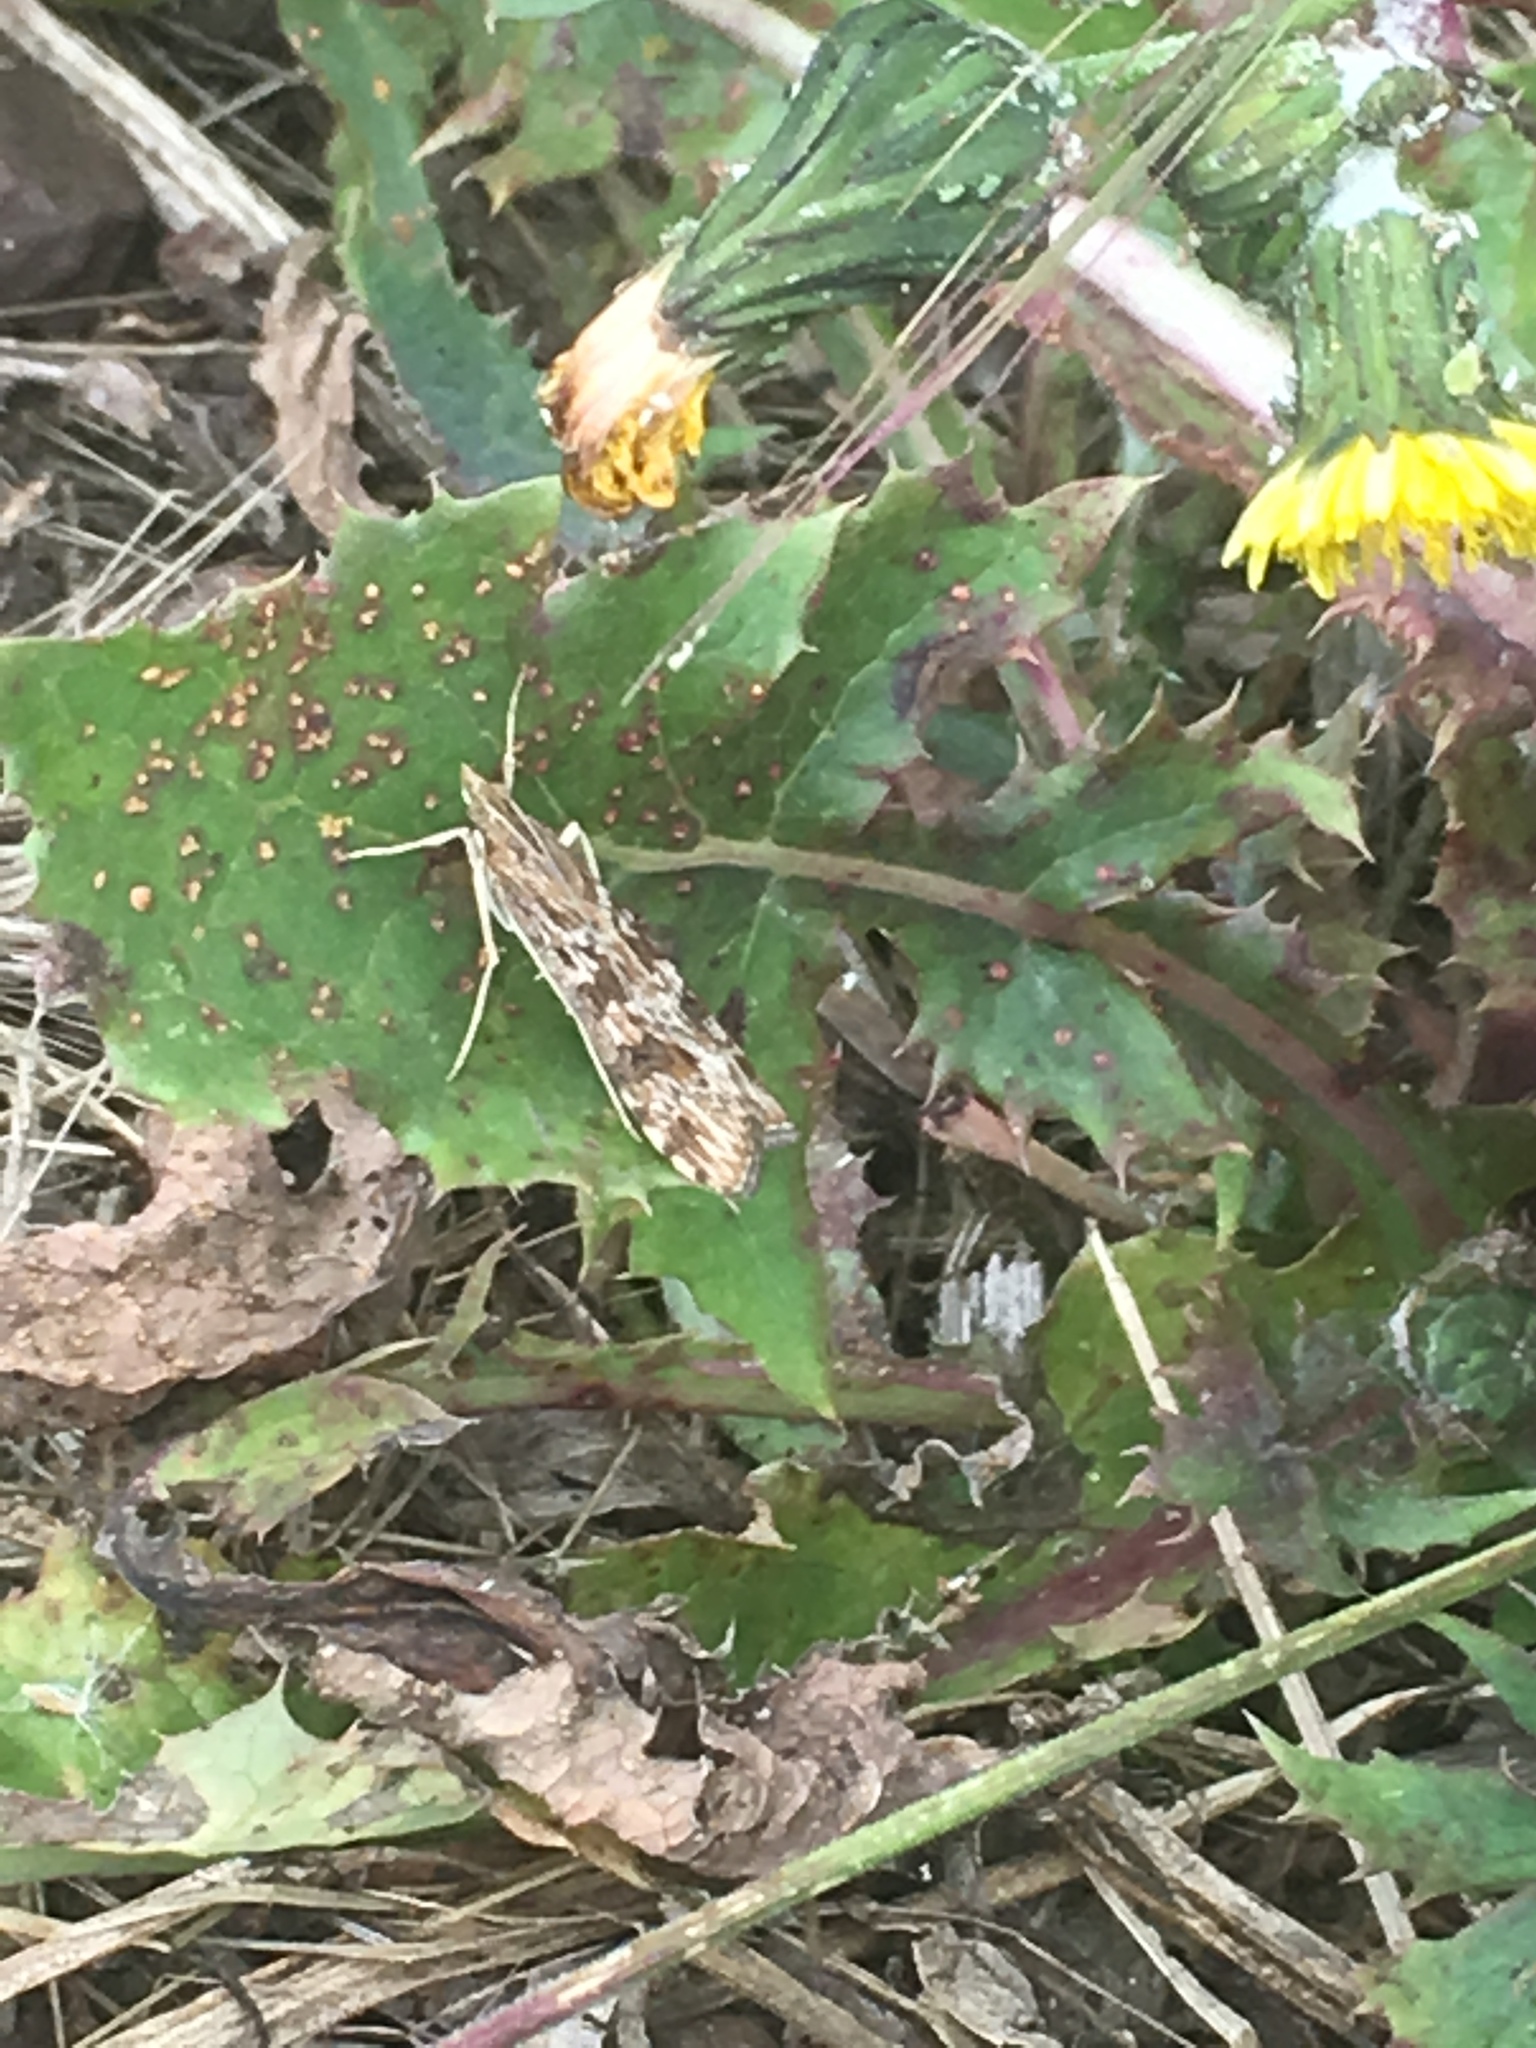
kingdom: Animalia
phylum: Arthropoda
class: Insecta
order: Lepidoptera
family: Crambidae
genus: Nomophila
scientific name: Nomophila nearctica
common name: American rush veneer
